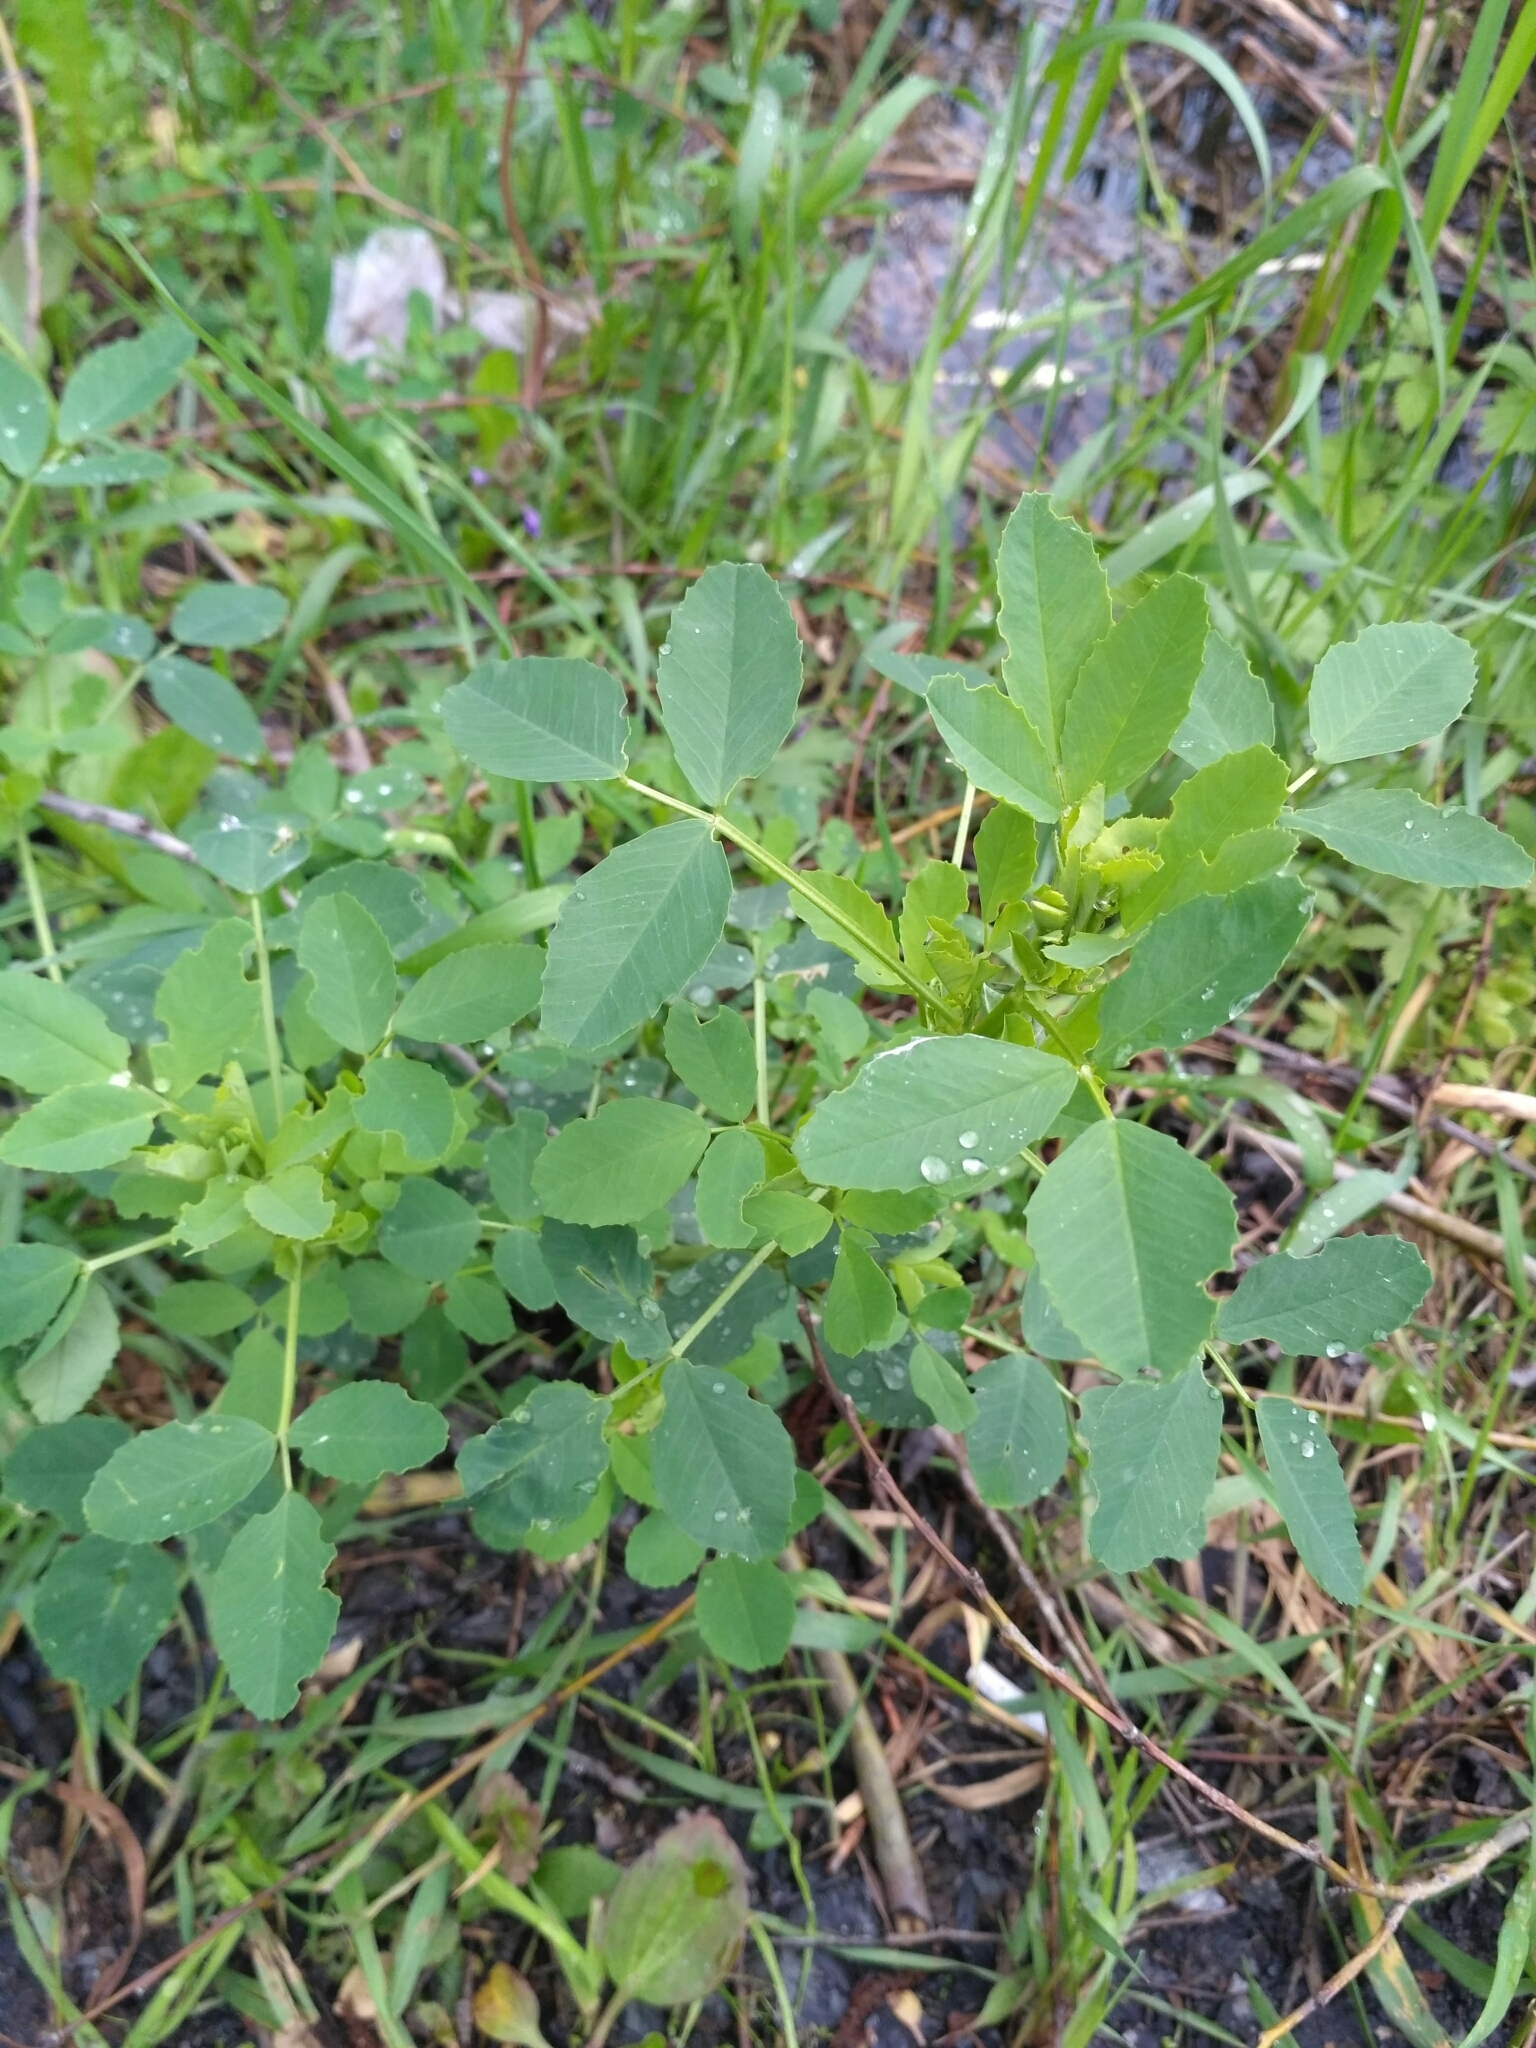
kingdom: Plantae
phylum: Tracheophyta
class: Magnoliopsida
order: Fabales
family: Fabaceae
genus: Melilotus
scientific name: Melilotus
